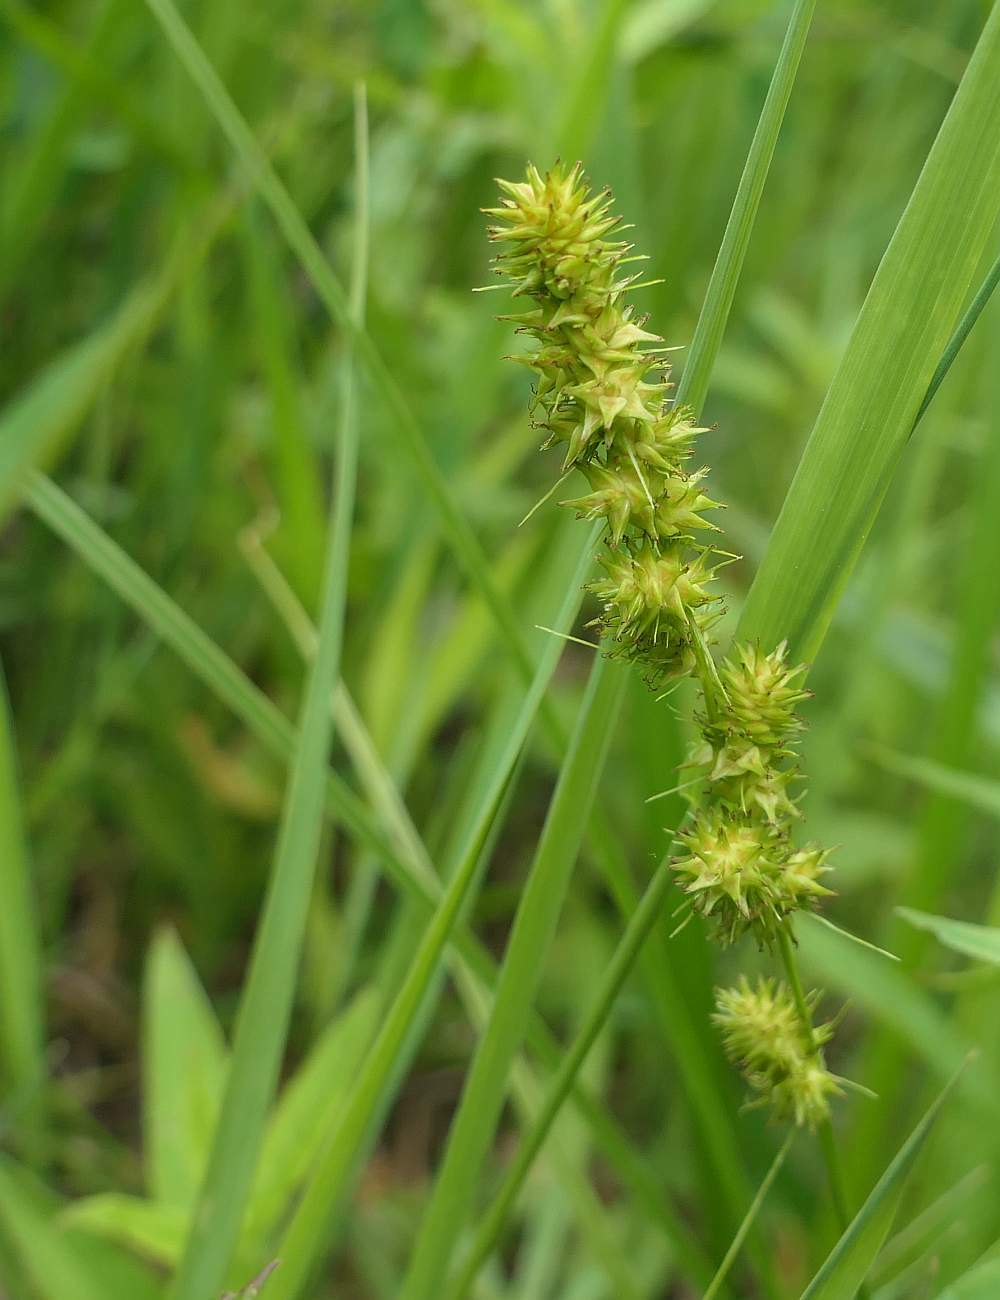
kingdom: Plantae
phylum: Tracheophyta
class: Liliopsida
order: Poales
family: Cyperaceae
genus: Carex
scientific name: Carex vulpinoidea
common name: American fox-sedge
